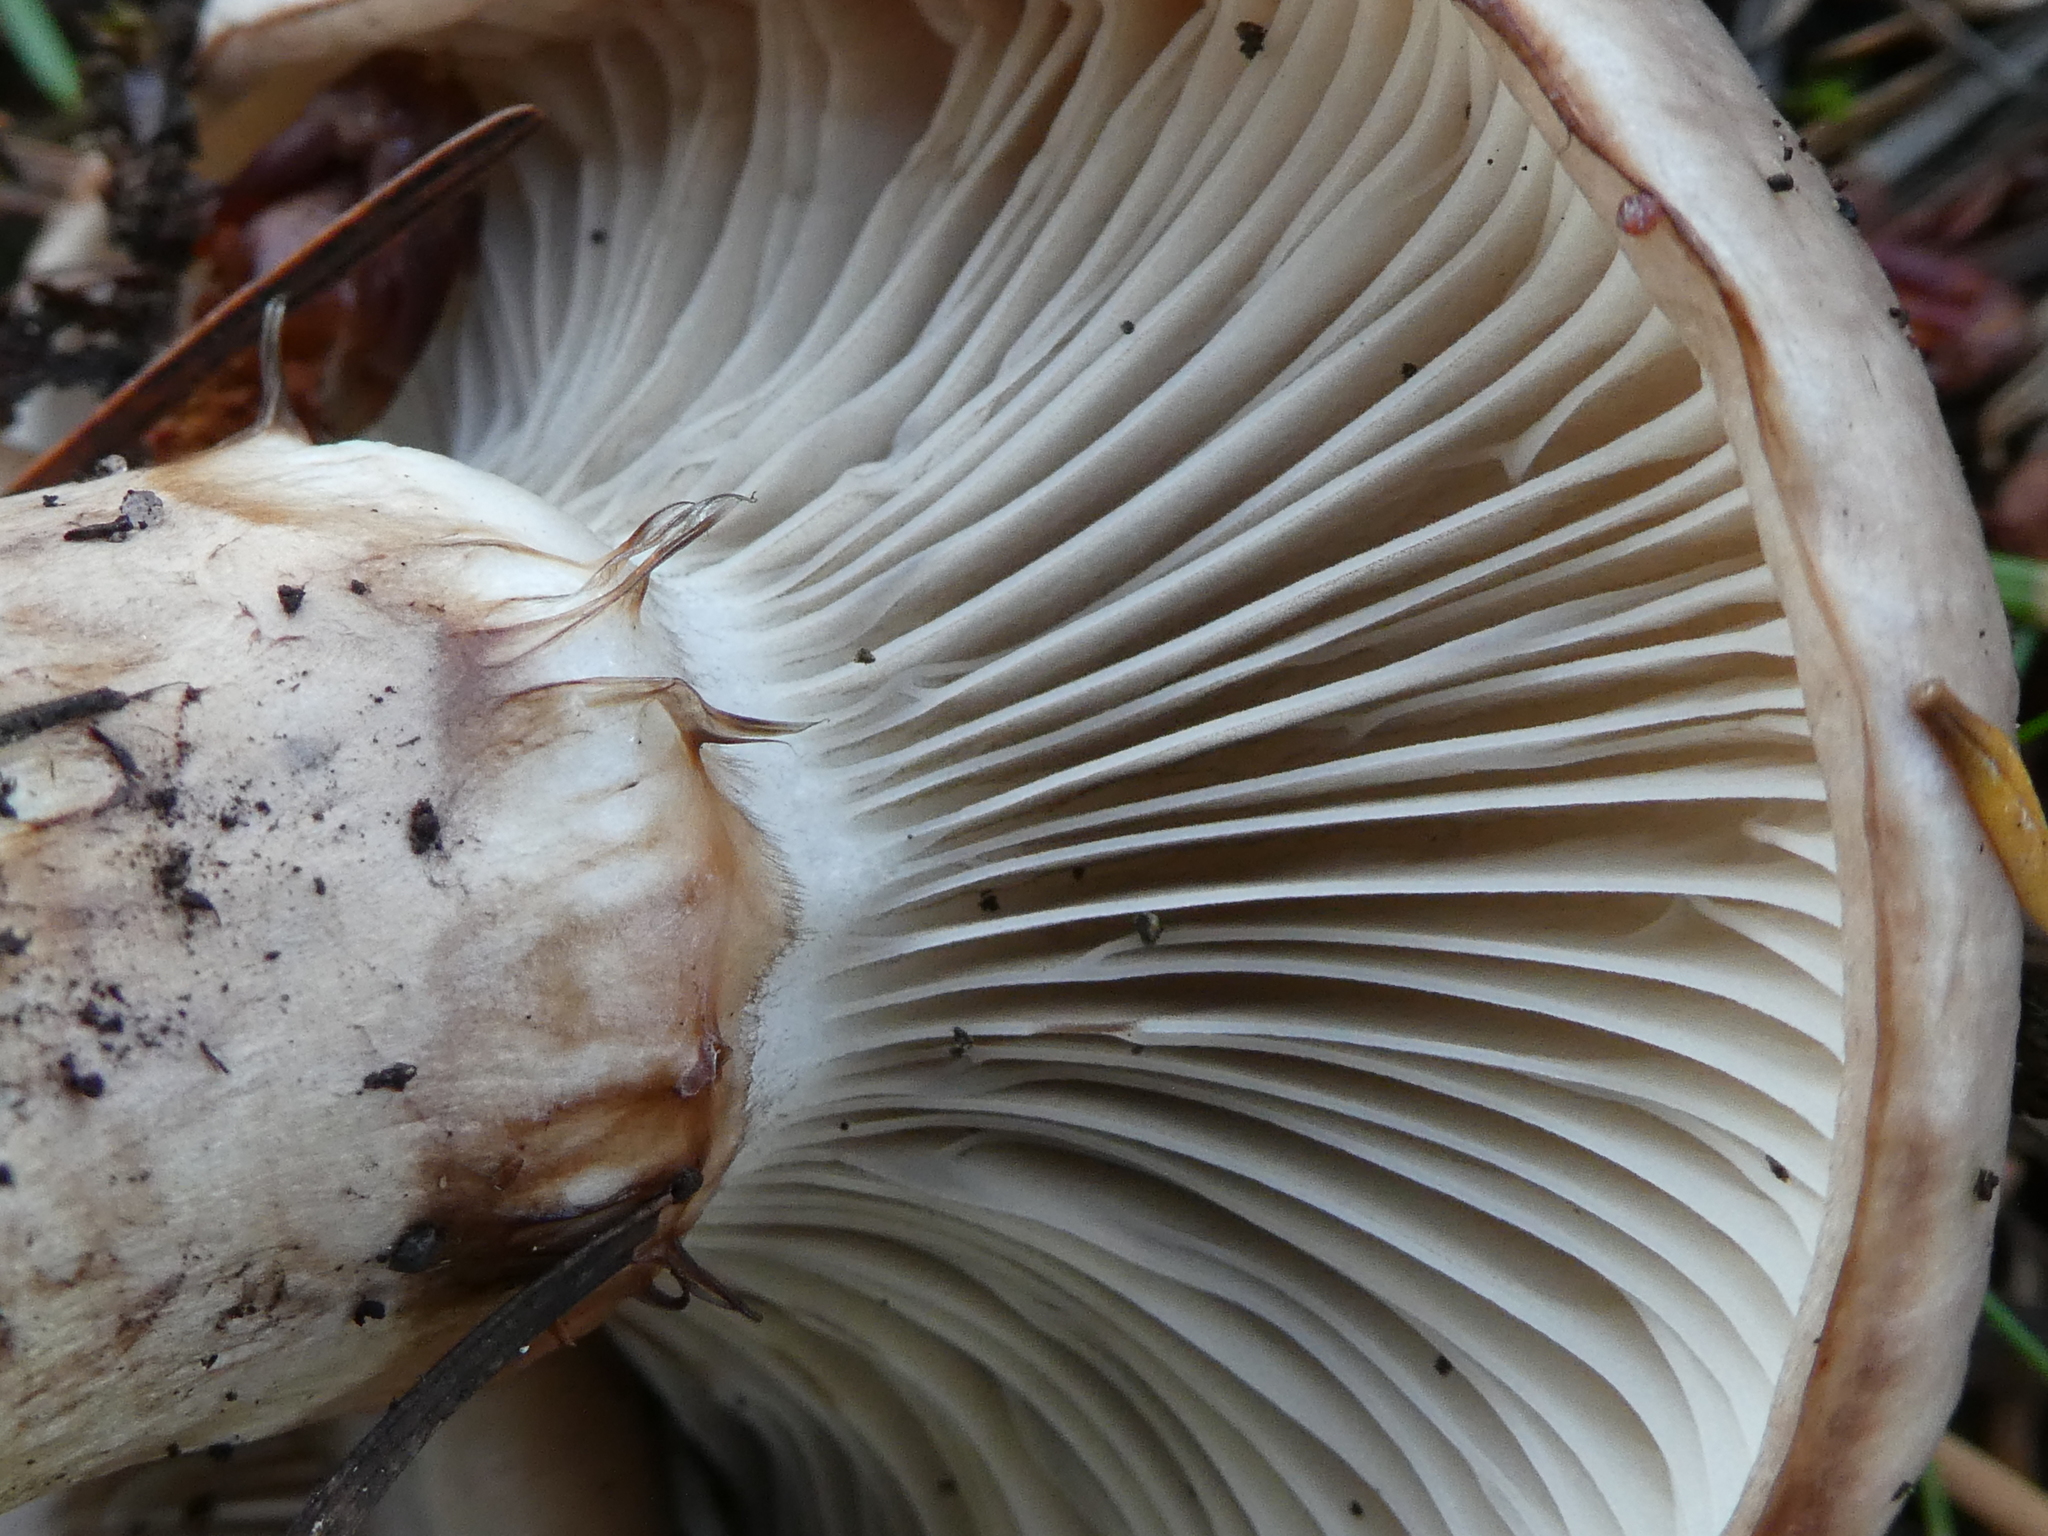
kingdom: Fungi
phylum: Basidiomycota
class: Agaricomycetes
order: Boletales
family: Gomphidiaceae
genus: Gomphidius
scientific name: Gomphidius oregonensis
